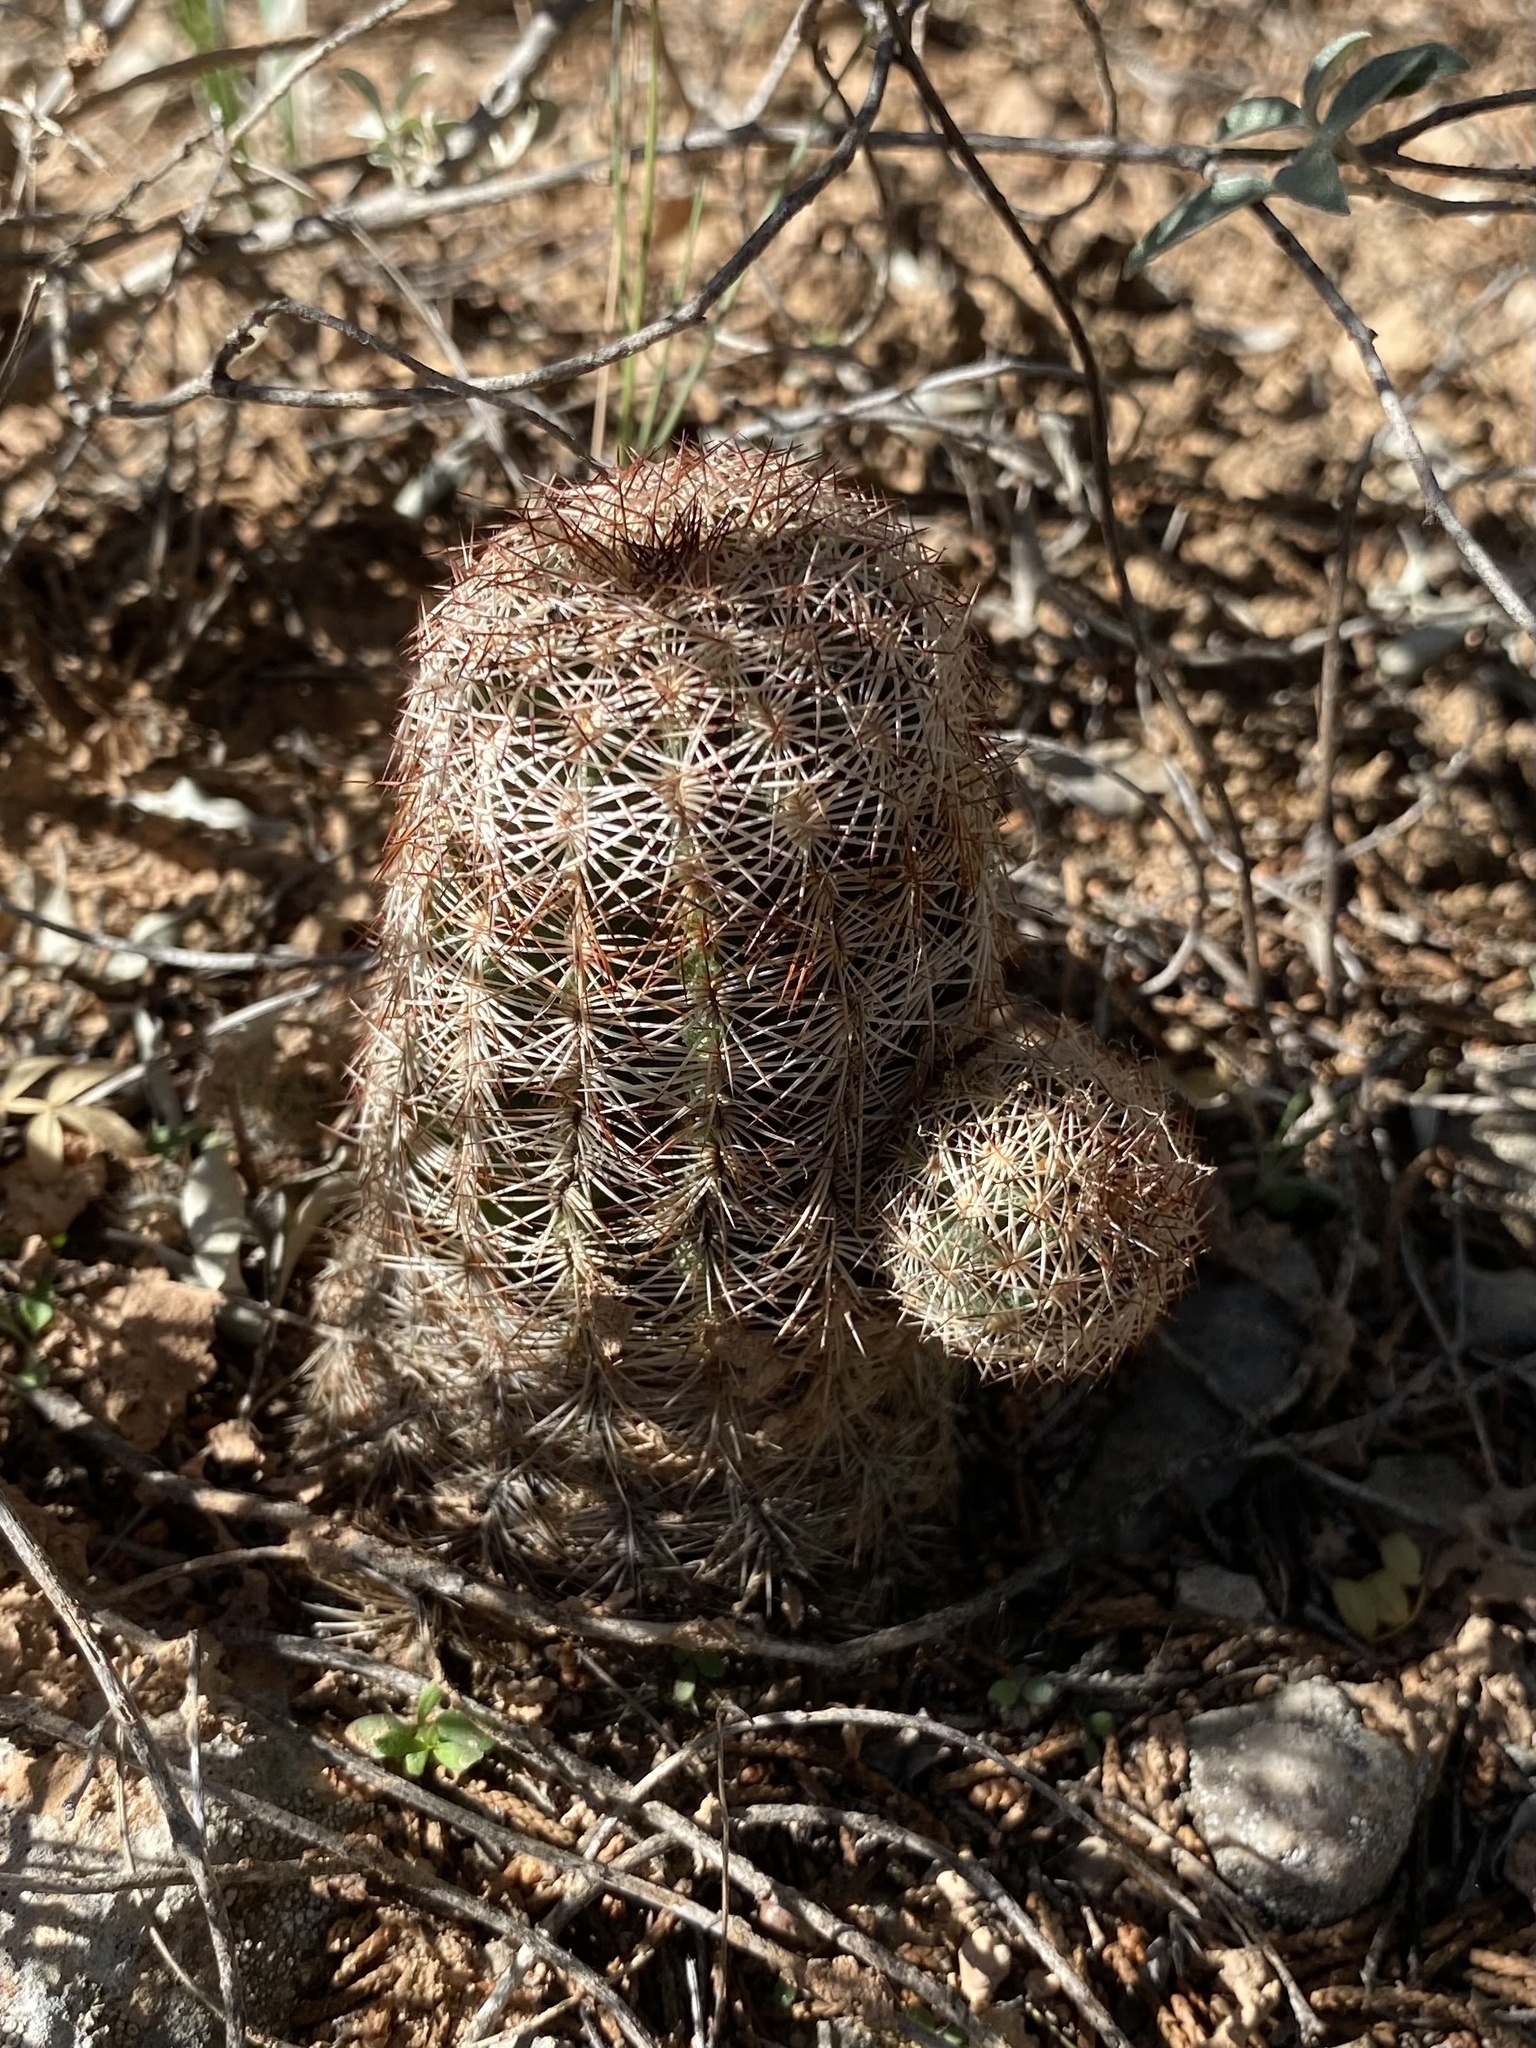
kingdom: Plantae
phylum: Tracheophyta
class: Magnoliopsida
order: Caryophyllales
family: Cactaceae
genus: Echinocereus
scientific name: Echinocereus reichenbachii
